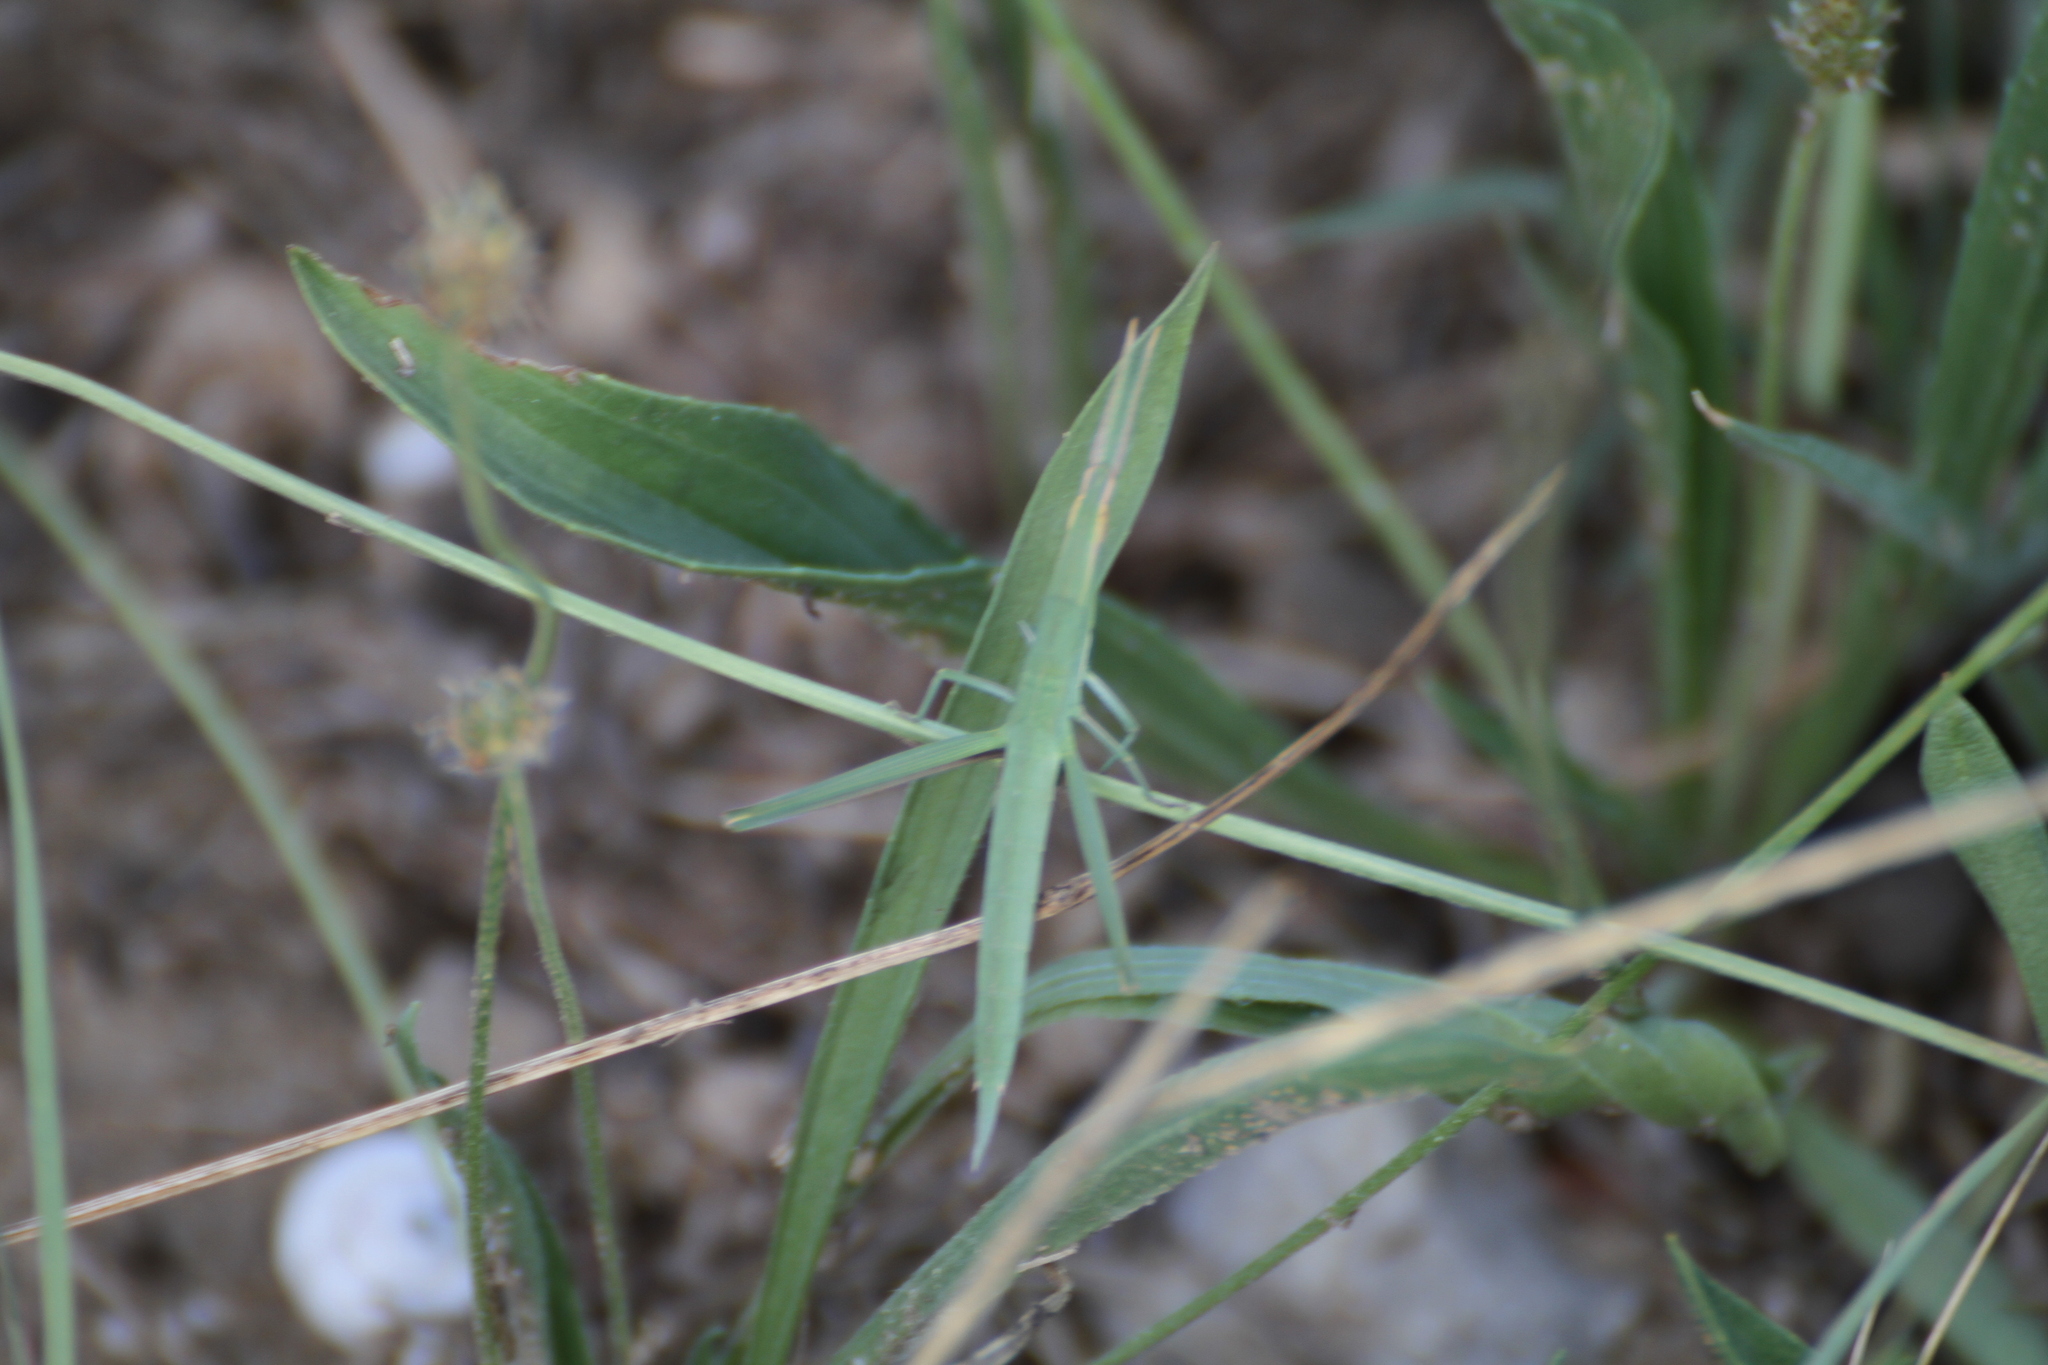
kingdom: Animalia
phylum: Arthropoda
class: Insecta
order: Orthoptera
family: Acrididae
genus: Acrida
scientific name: Acrida ungarica
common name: Common cone-headed grasshopper
